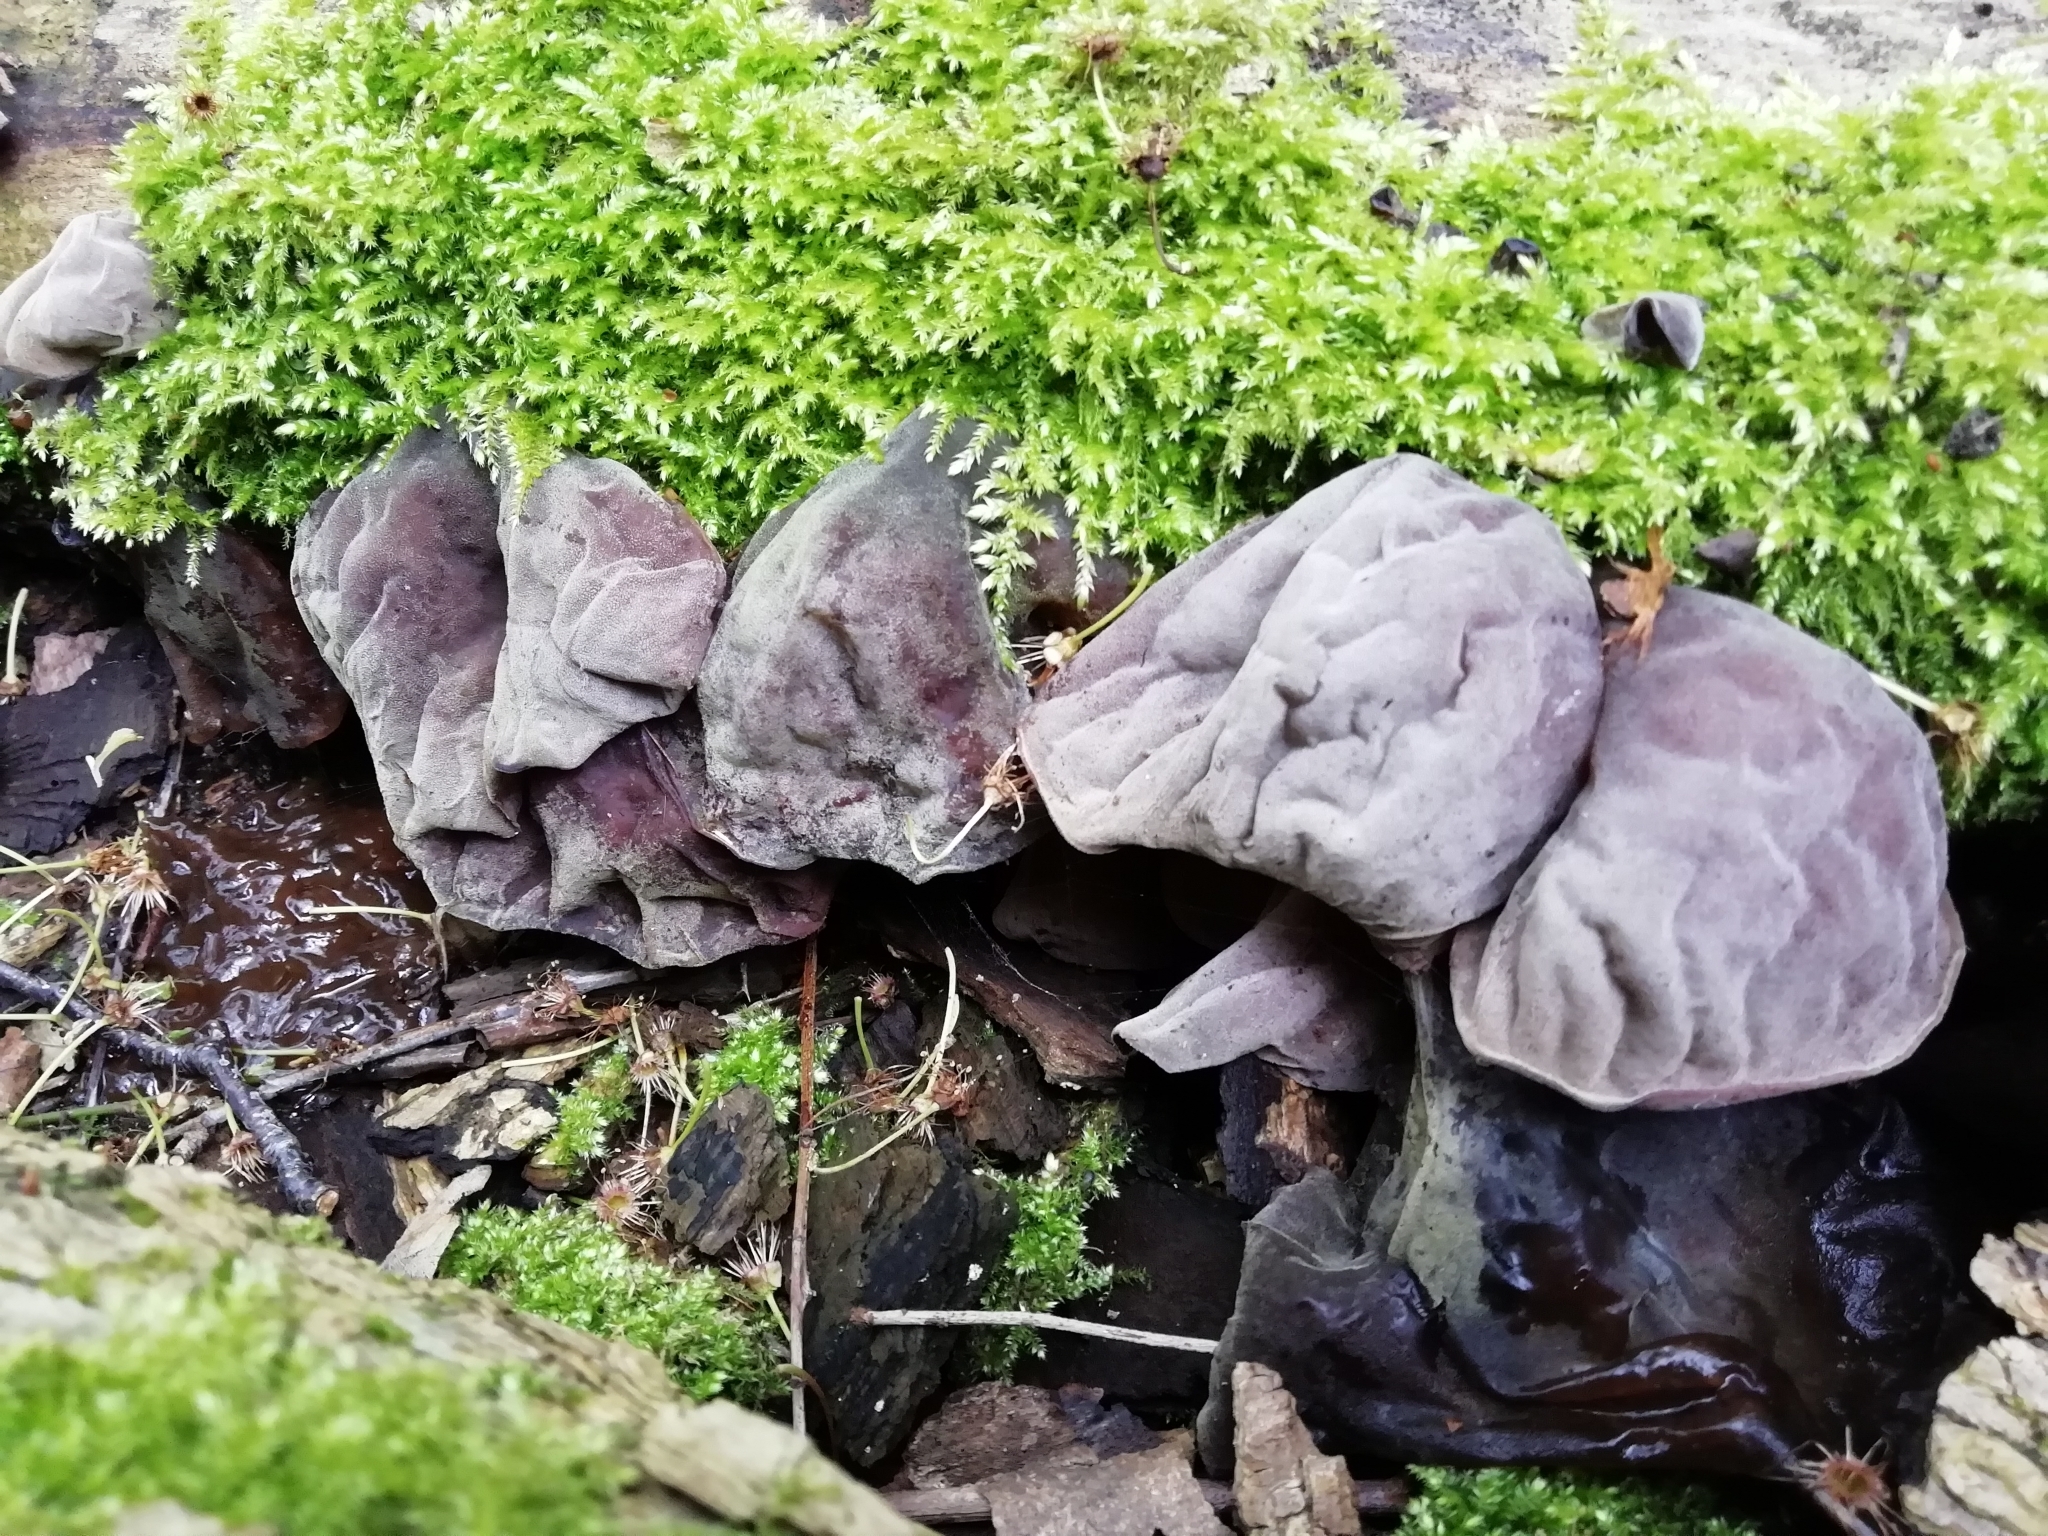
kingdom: Fungi
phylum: Basidiomycota
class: Agaricomycetes
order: Auriculariales
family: Auriculariaceae
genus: Auricularia
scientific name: Auricularia auricula-judae
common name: Jelly ear
